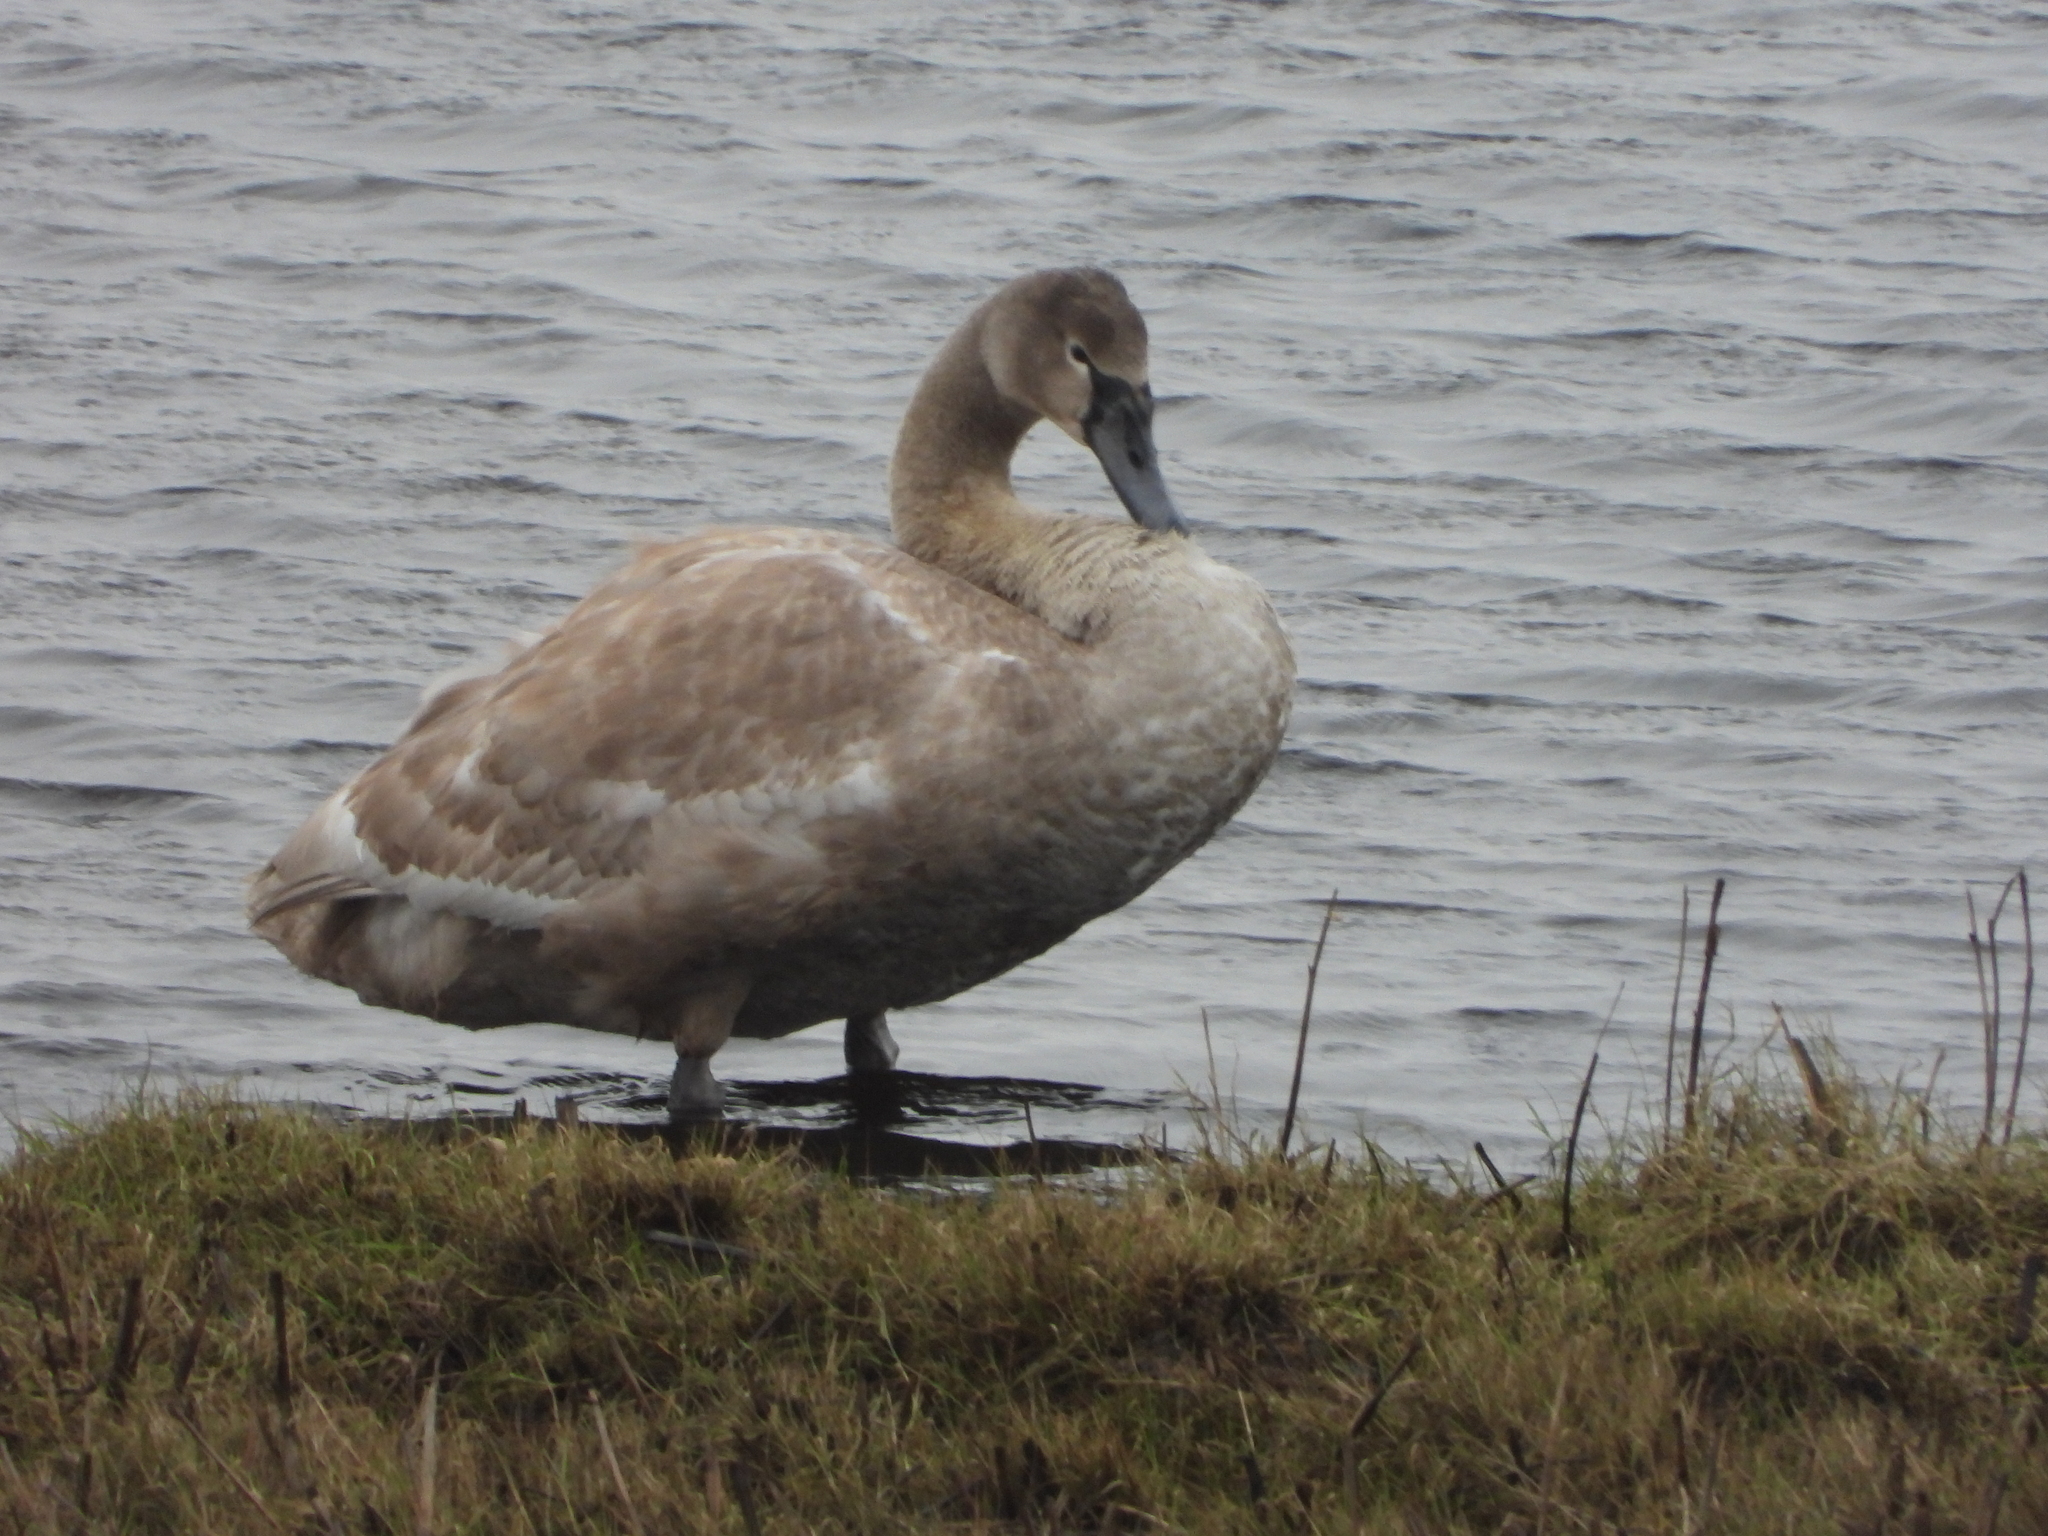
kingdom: Animalia
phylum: Chordata
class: Aves
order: Anseriformes
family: Anatidae
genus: Cygnus
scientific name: Cygnus olor
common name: Mute swan
